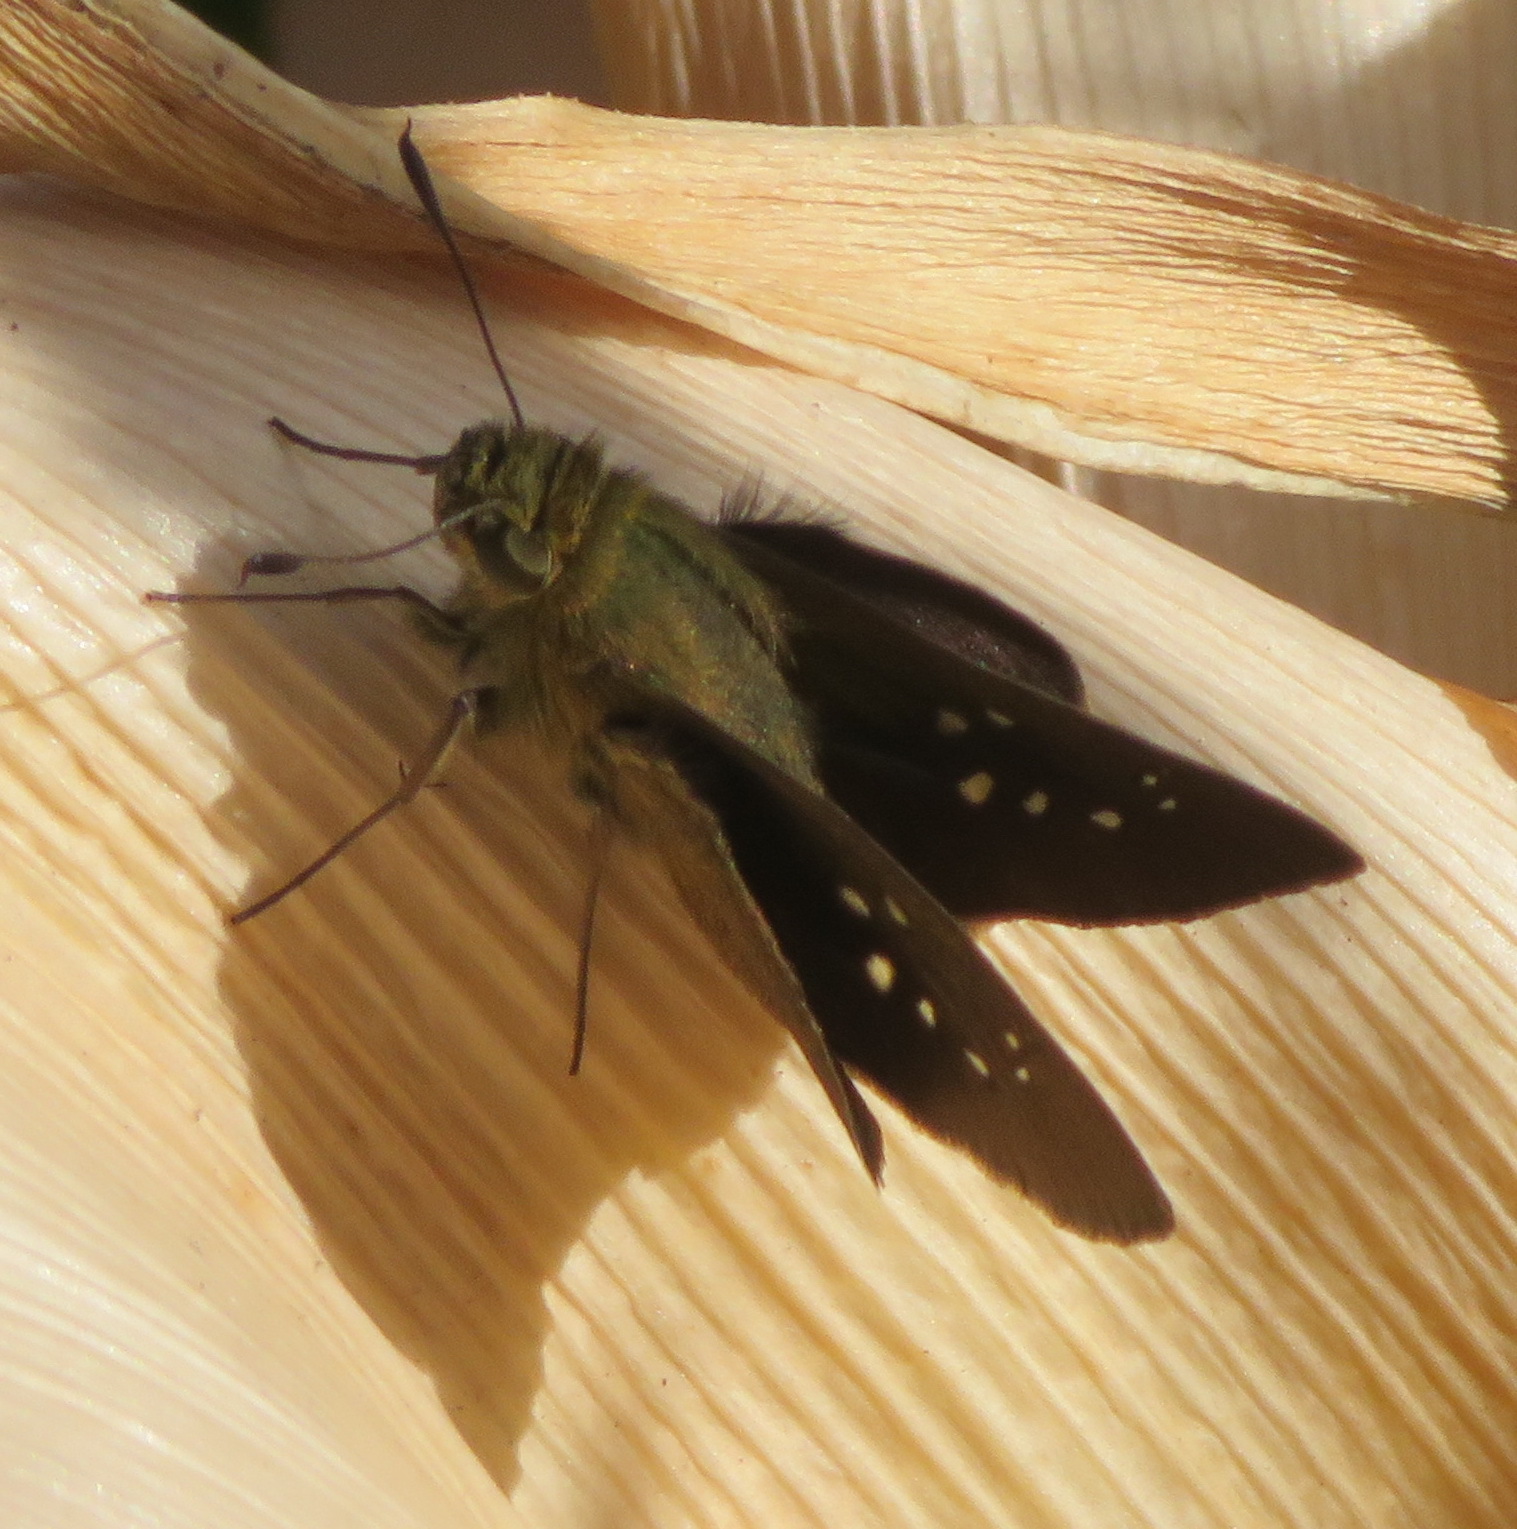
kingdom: Animalia
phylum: Arthropoda
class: Insecta
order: Lepidoptera
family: Hesperiidae
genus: Pelopidas
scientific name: Pelopidas thrax
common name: Millet skipper
